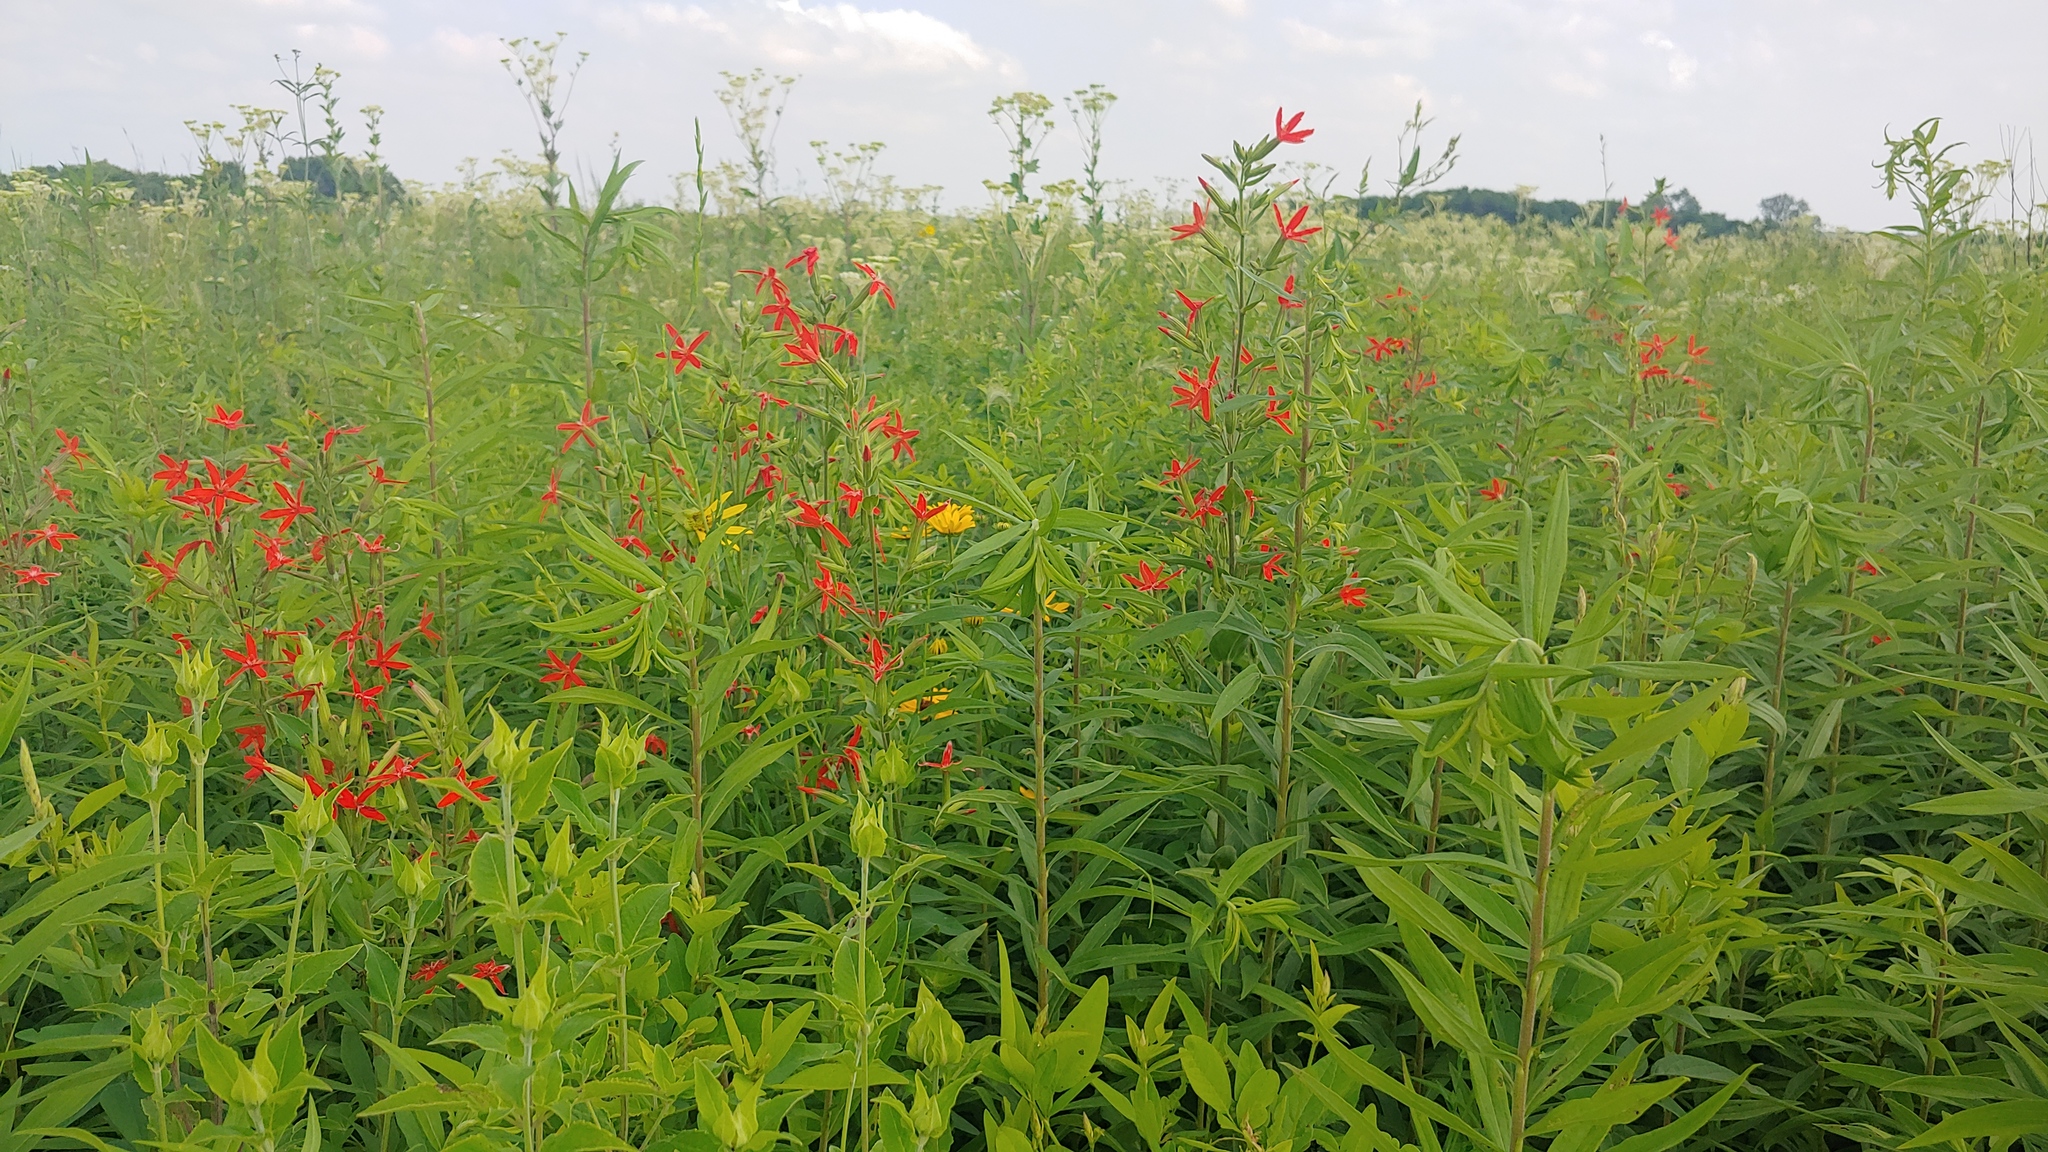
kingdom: Plantae
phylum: Tracheophyta
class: Magnoliopsida
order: Caryophyllales
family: Caryophyllaceae
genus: Silene
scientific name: Silene regia
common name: Royal catchfly
